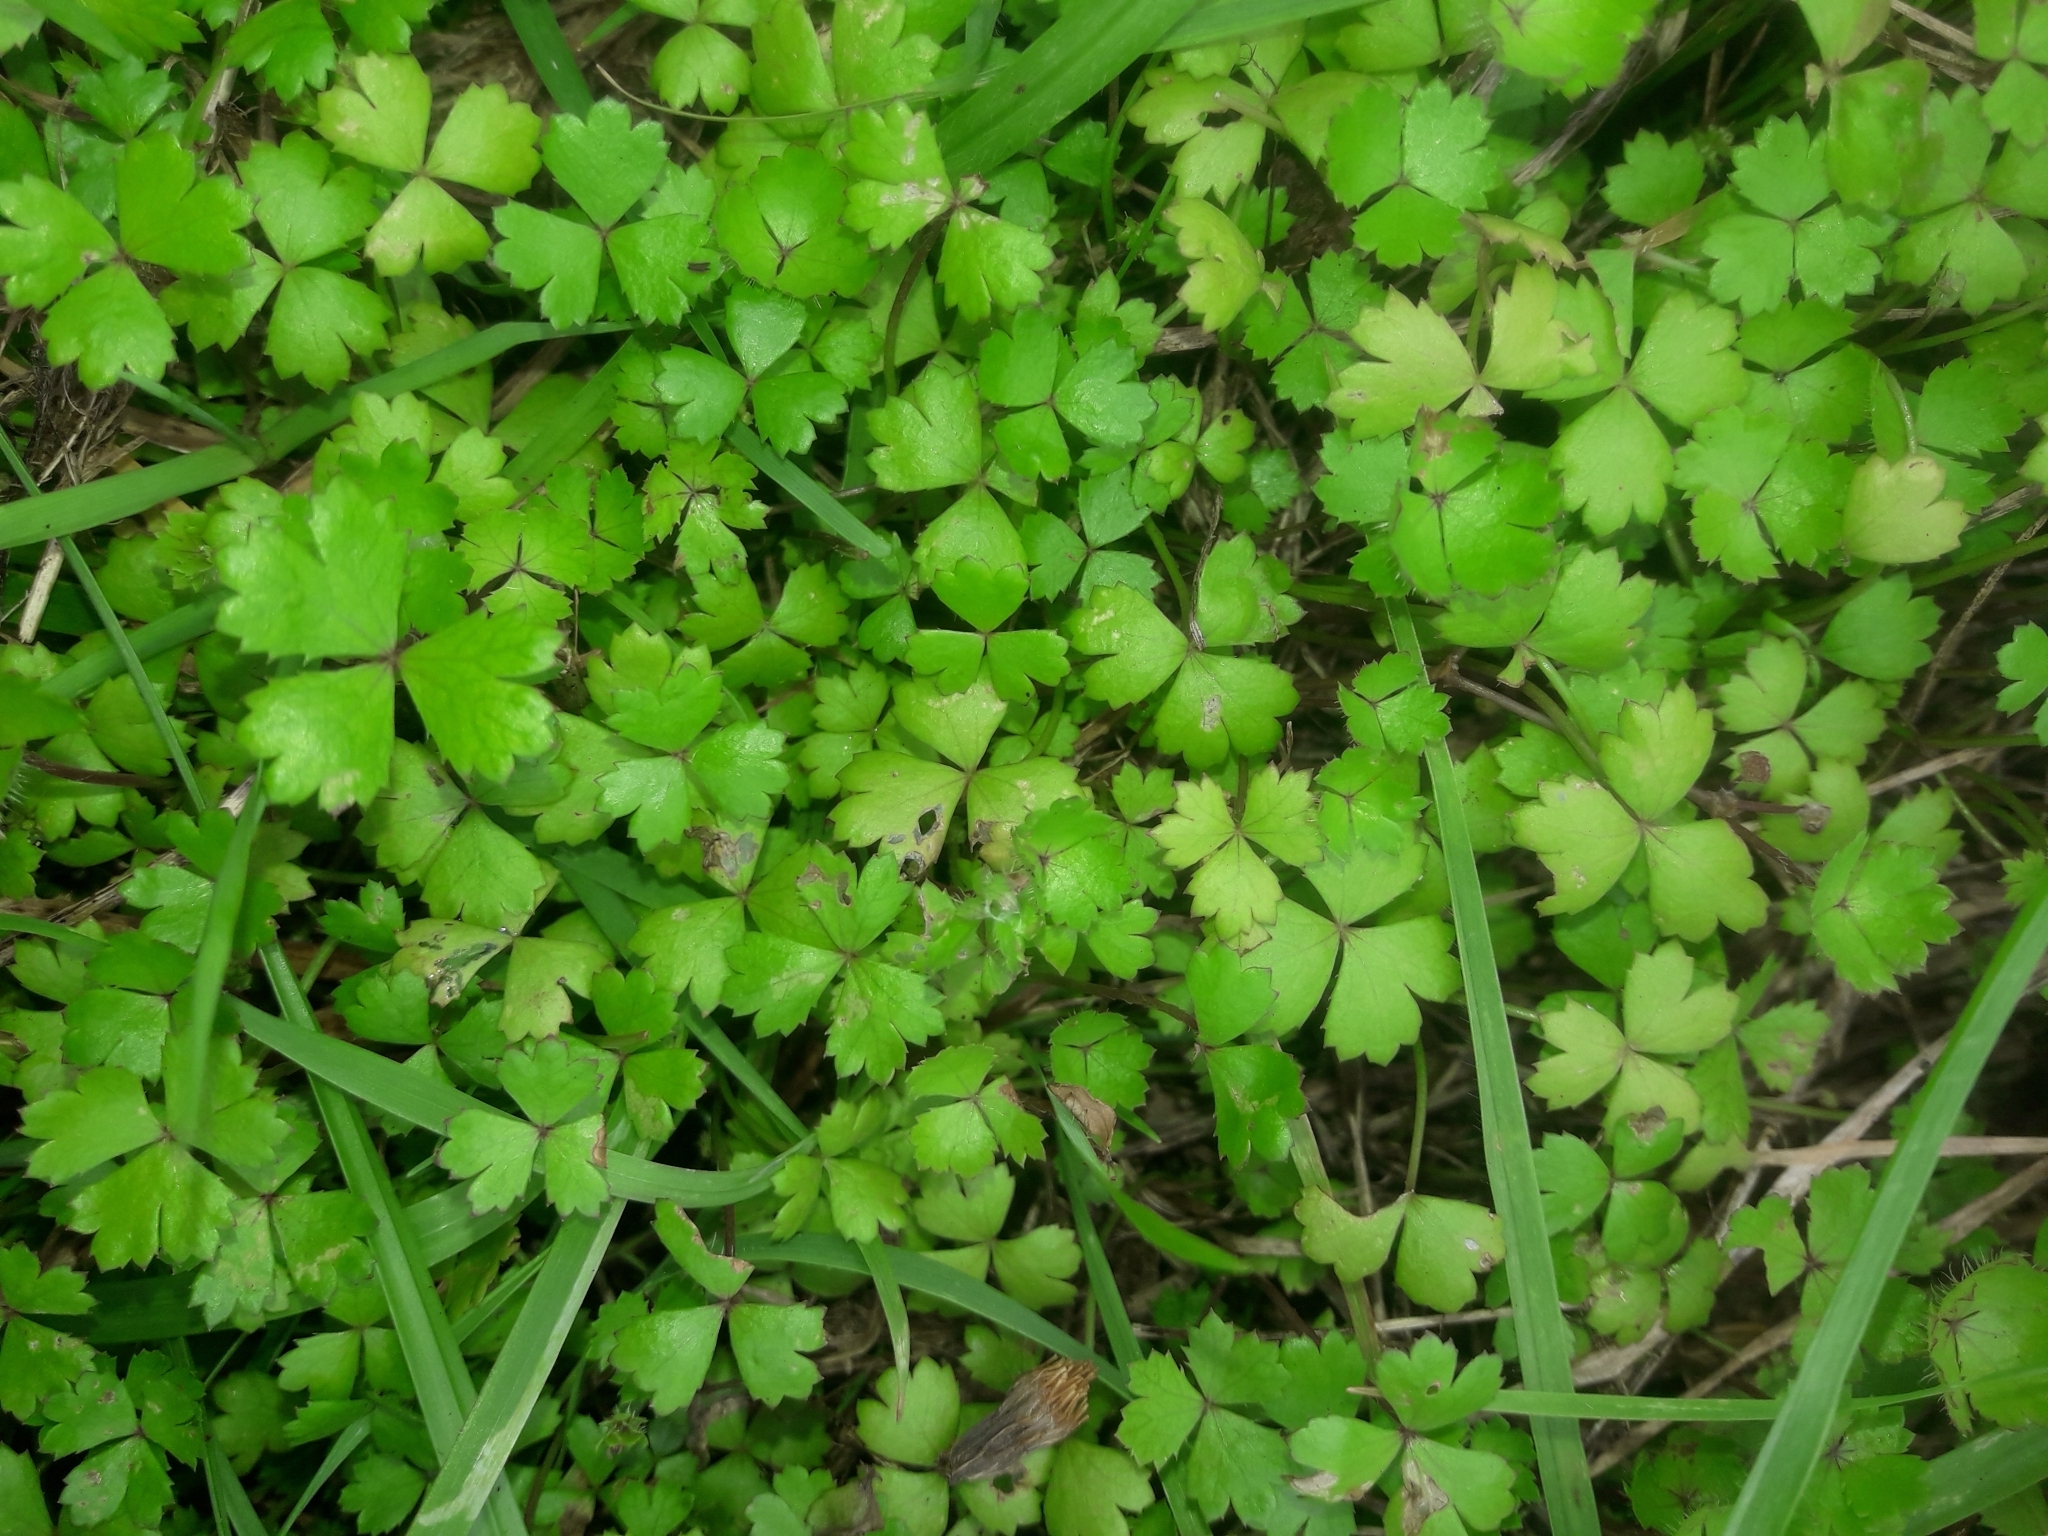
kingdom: Plantae
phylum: Tracheophyta
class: Magnoliopsida
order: Apiales
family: Araliaceae
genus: Hydrocotyle
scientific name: Hydrocotyle tripartita
